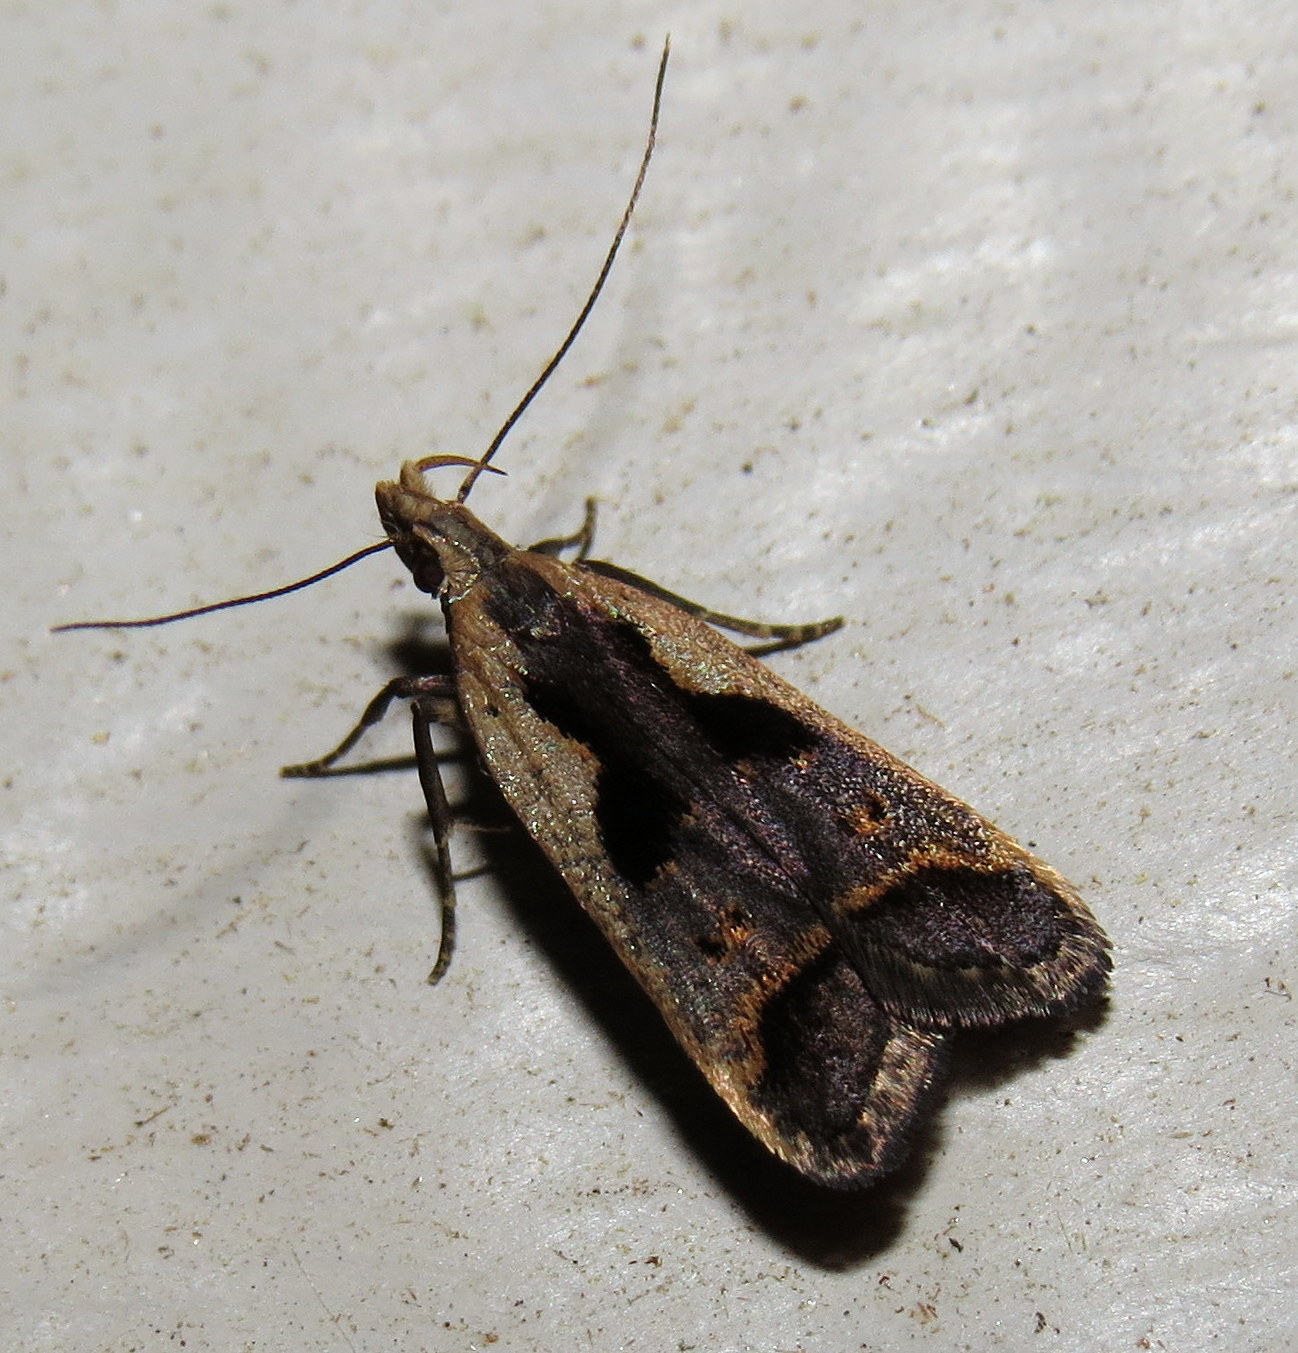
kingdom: Animalia
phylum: Arthropoda
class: Insecta
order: Lepidoptera
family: Gelechiidae
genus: Dichomeris
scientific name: Dichomeris bilobella
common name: Bilobed dichomeris moth
